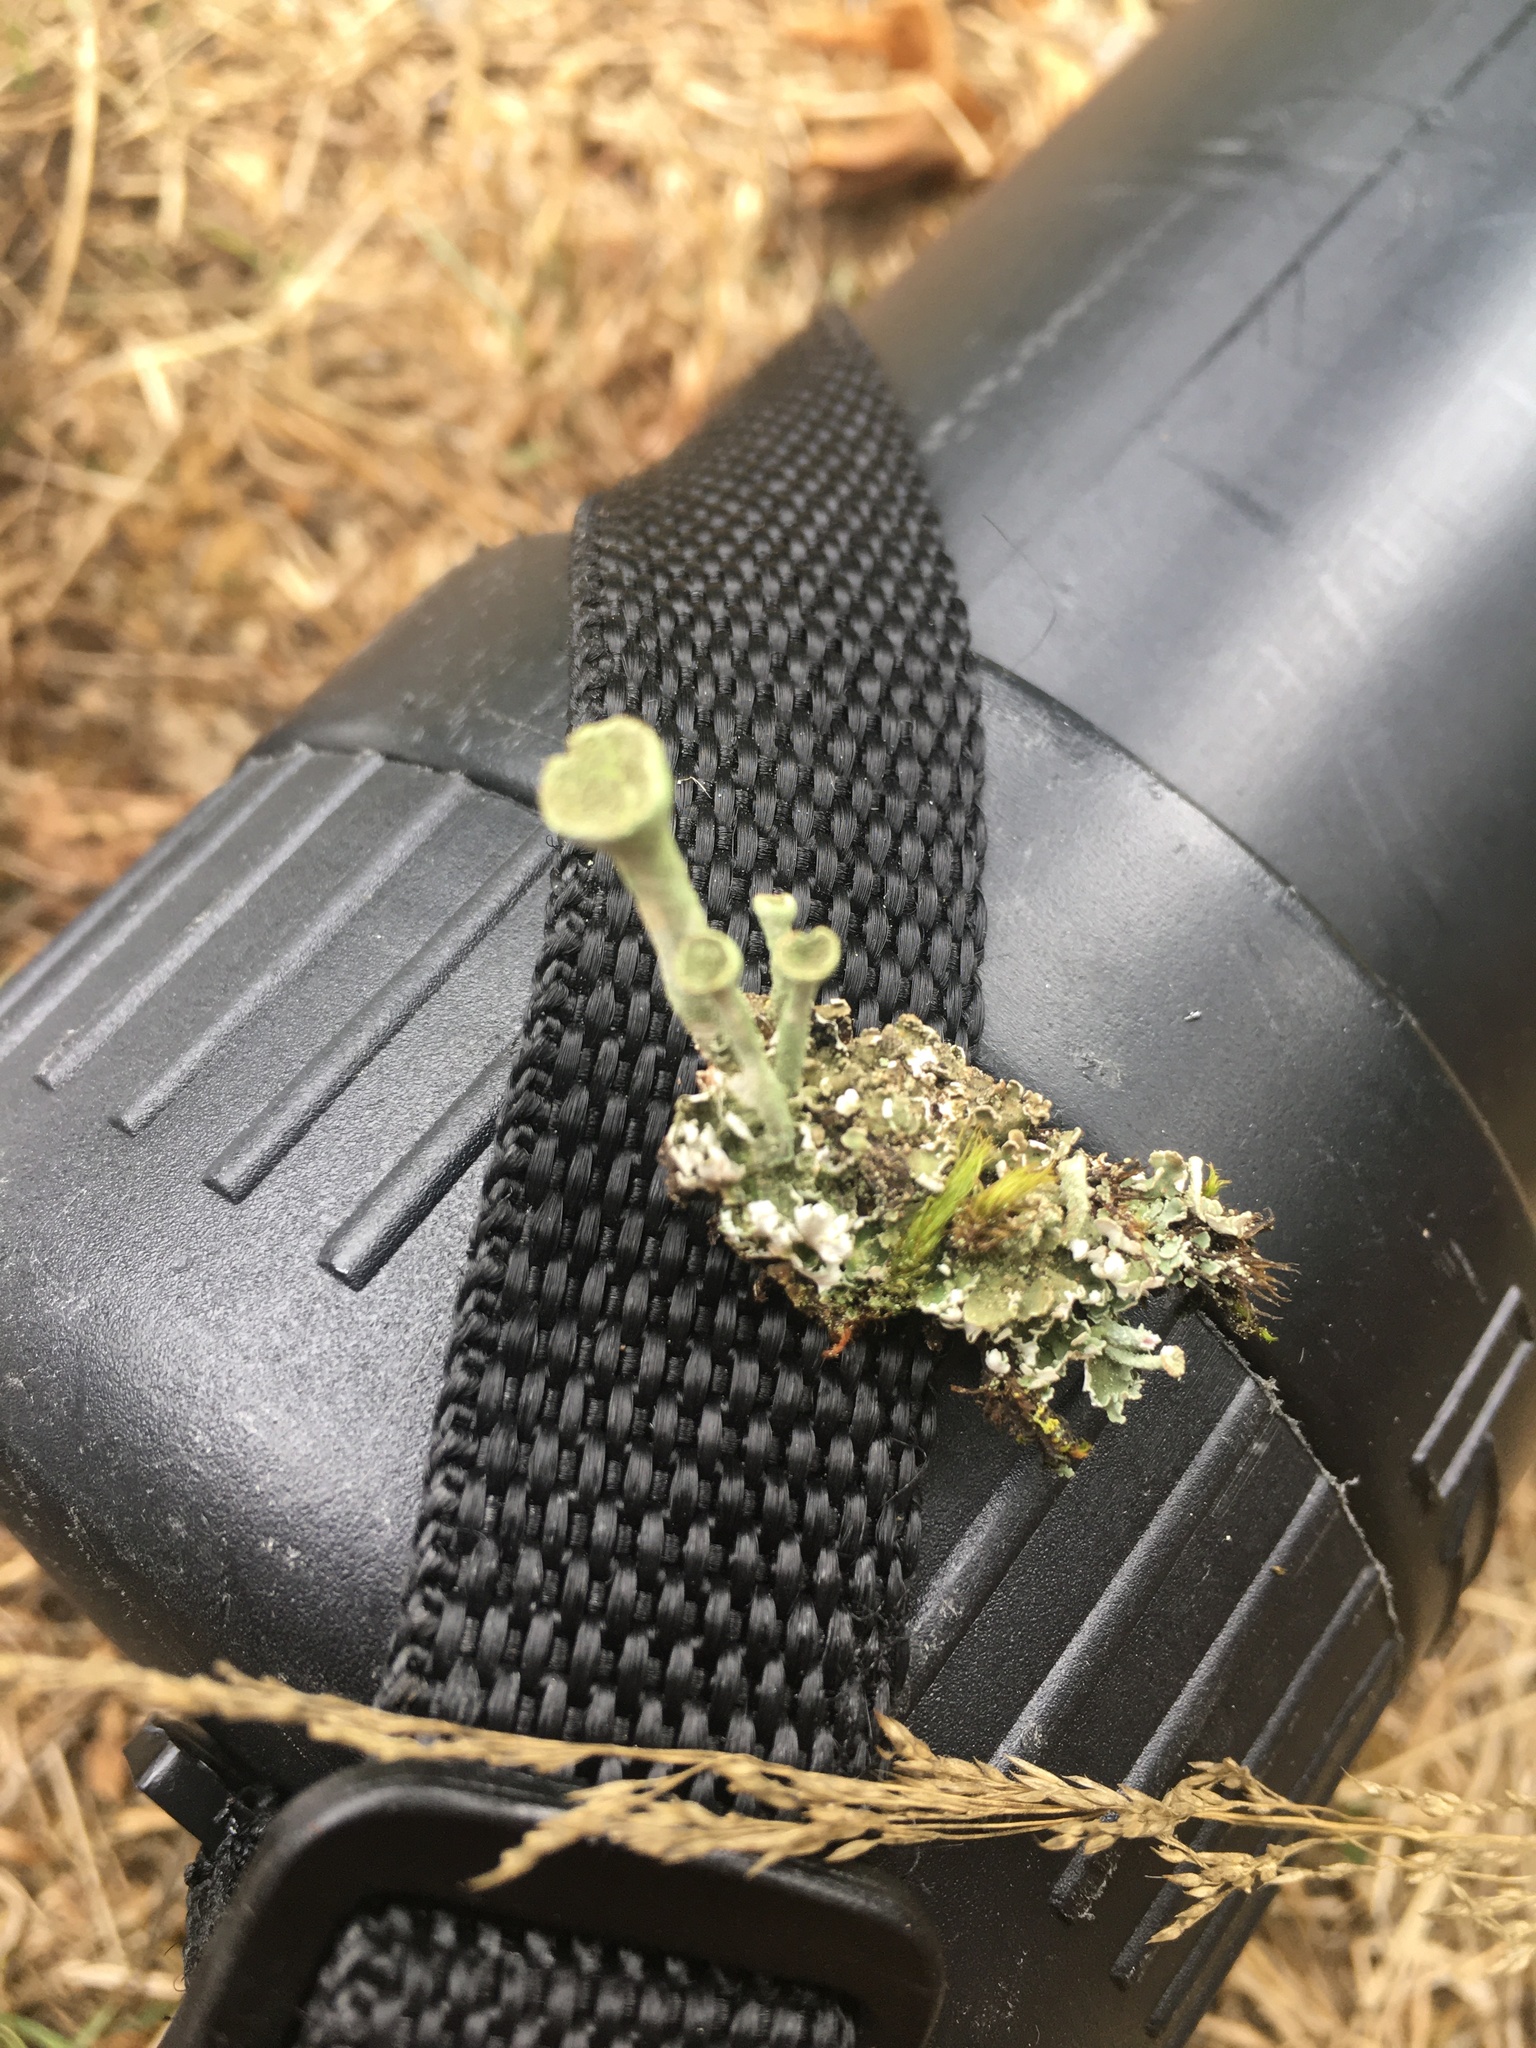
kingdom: Fungi
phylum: Ascomycota
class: Lecanoromycetes
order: Lecanorales
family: Cladoniaceae
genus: Cladonia
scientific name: Cladonia fimbriata
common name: Powdered trumpet lichen
